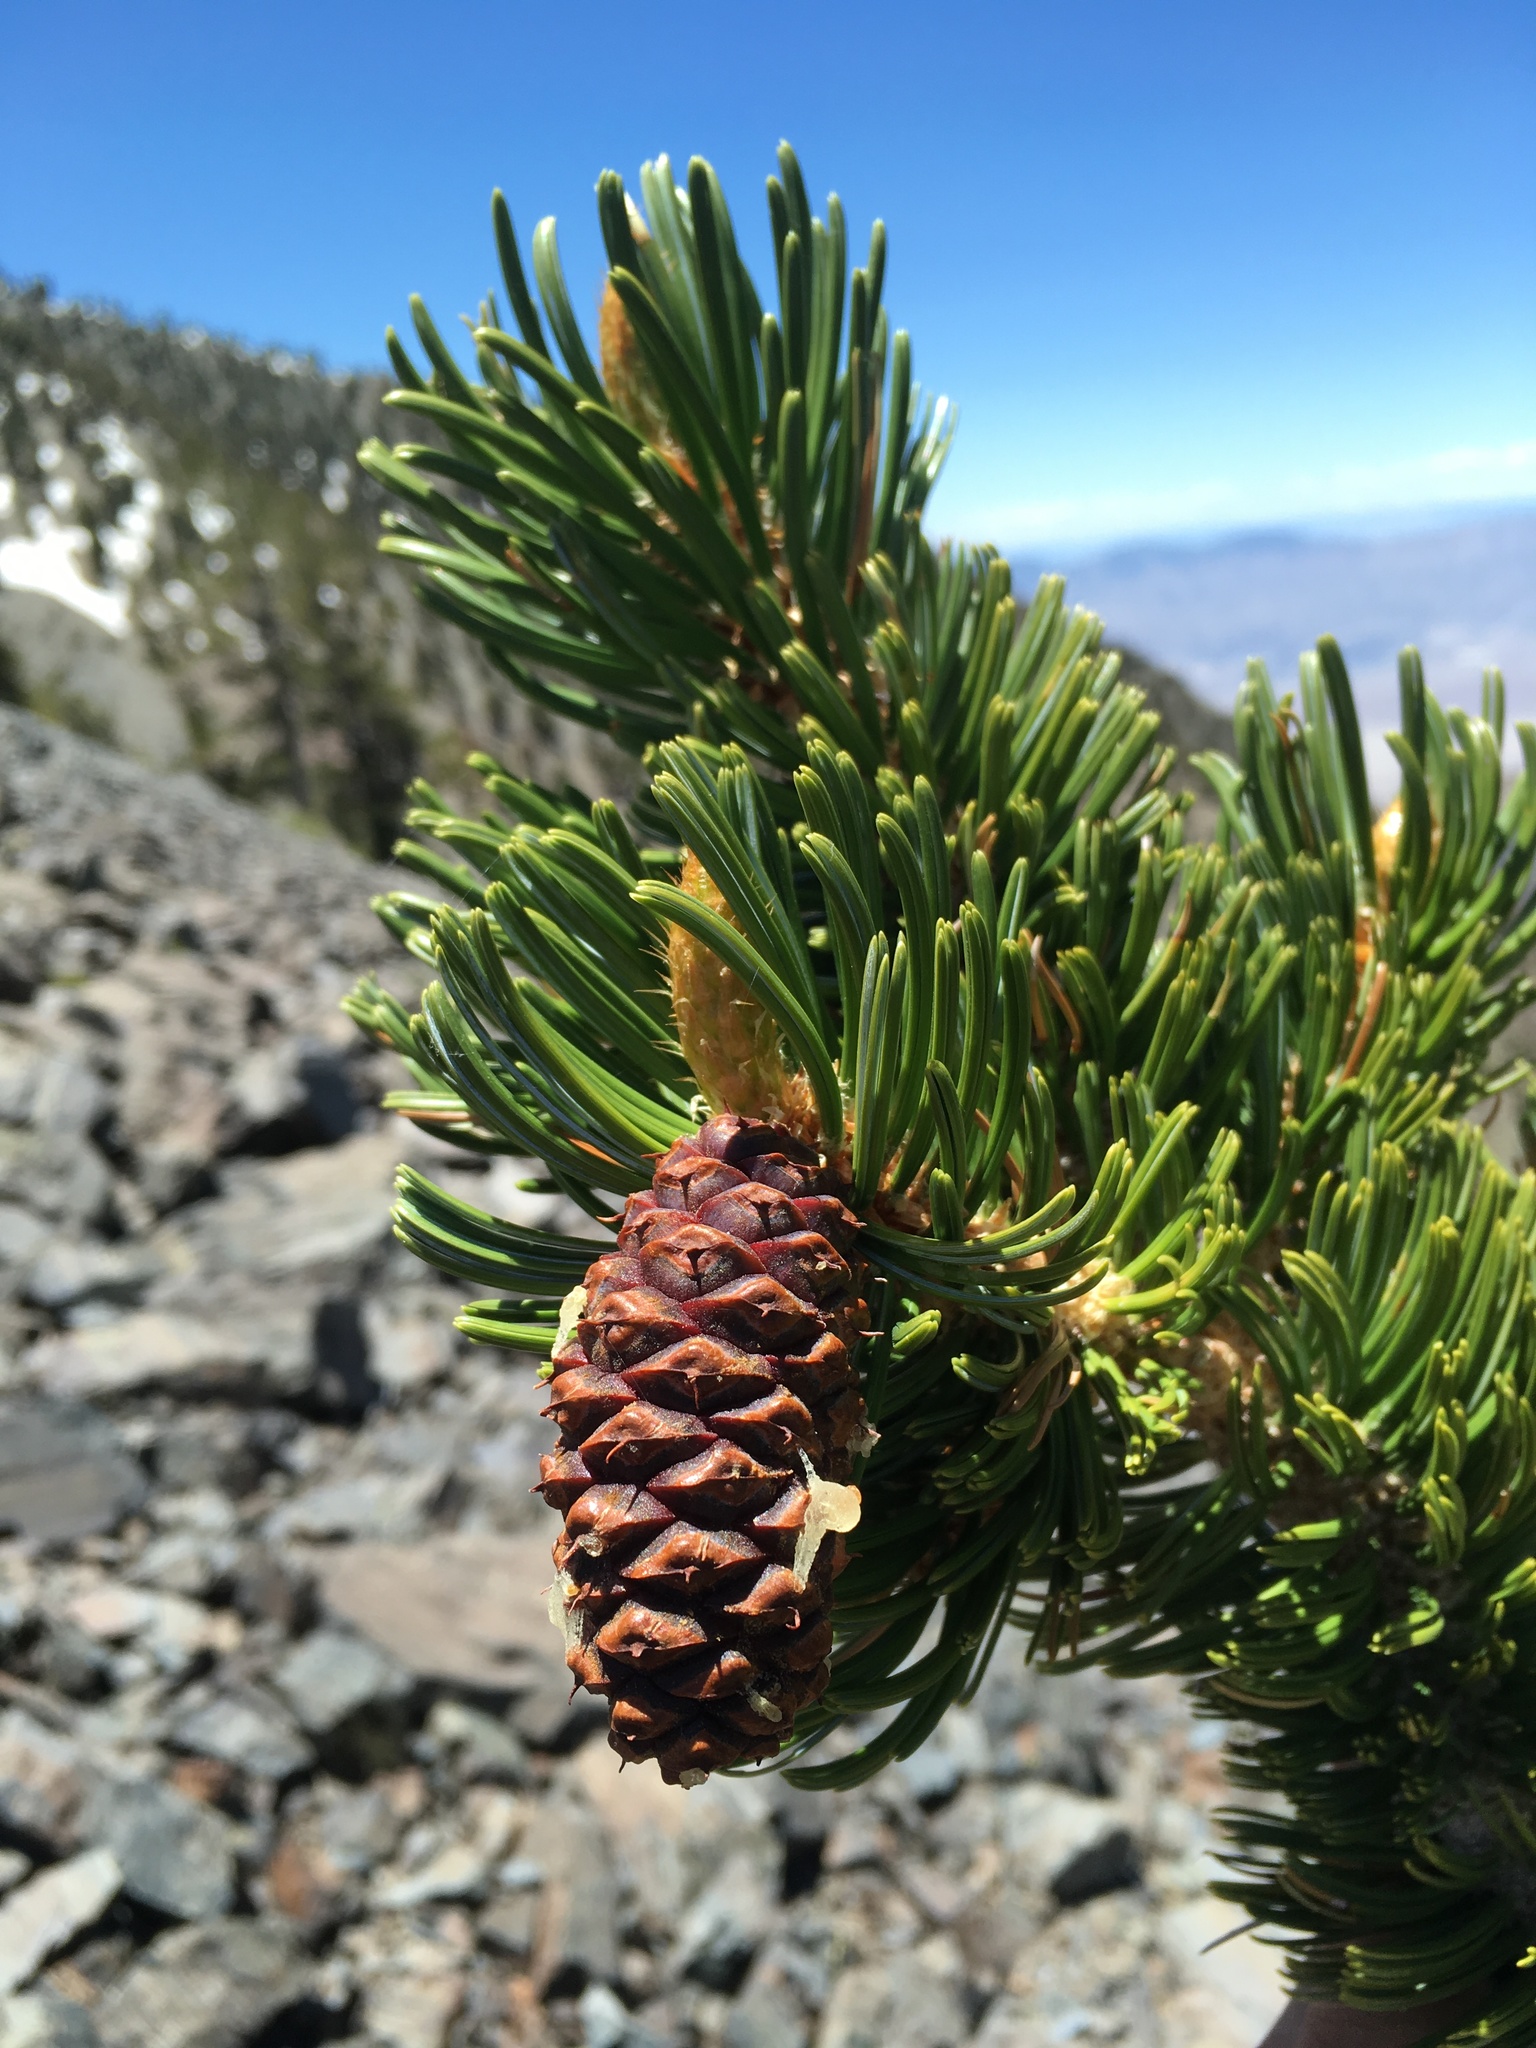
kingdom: Plantae
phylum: Tracheophyta
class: Pinopsida
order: Pinales
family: Pinaceae
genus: Pinus
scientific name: Pinus longaeva
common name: Intermountain bristlecone pine
